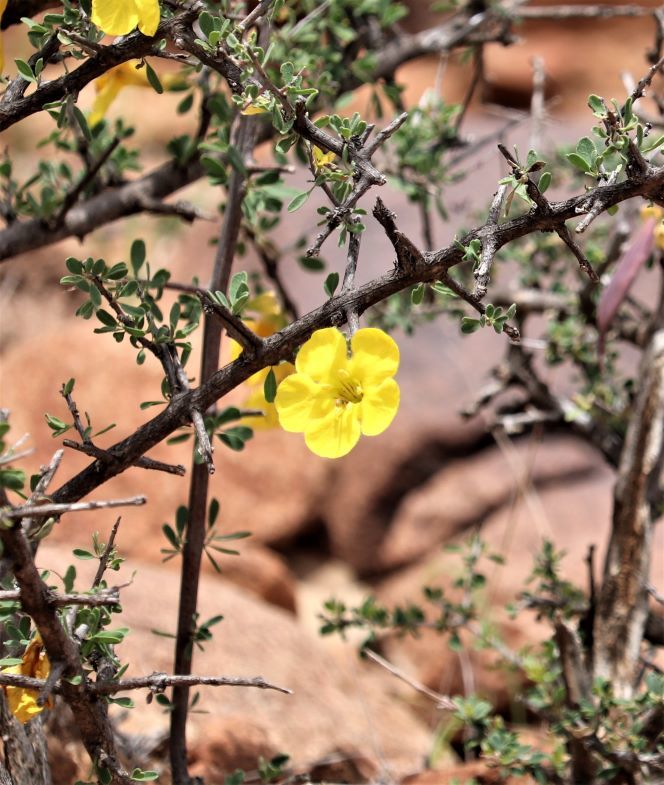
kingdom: Plantae
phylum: Tracheophyta
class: Magnoliopsida
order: Lamiales
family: Bignoniaceae
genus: Rhigozum
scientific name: Rhigozum obovatum
